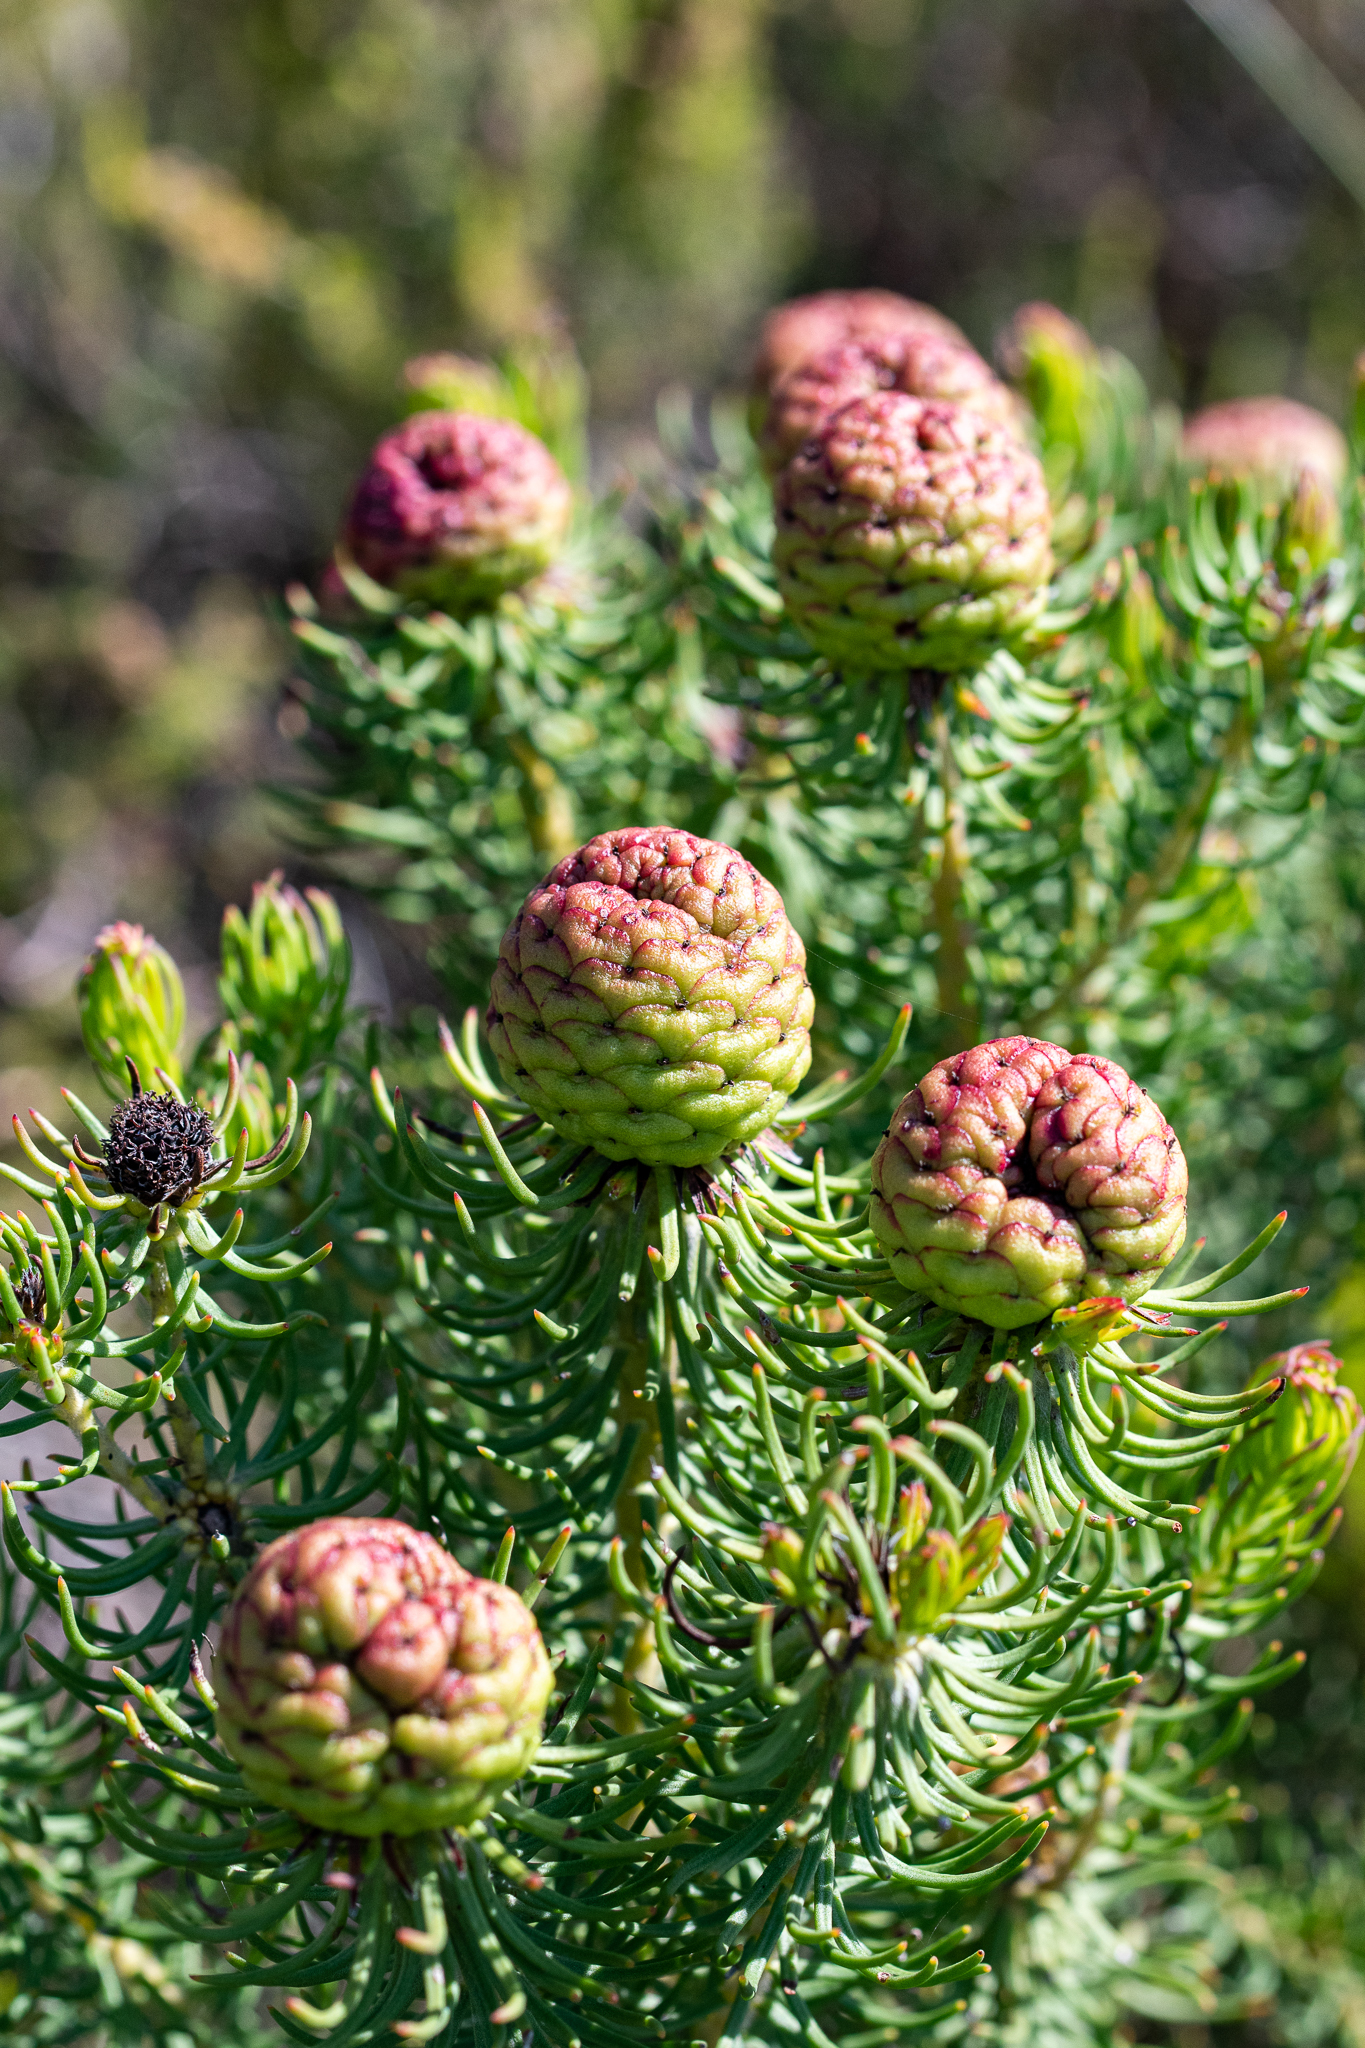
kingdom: Plantae
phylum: Tracheophyta
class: Magnoliopsida
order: Proteales
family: Proteaceae
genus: Leucadendron
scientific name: Leucadendron teretifolium
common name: Needle-leaf conebush
